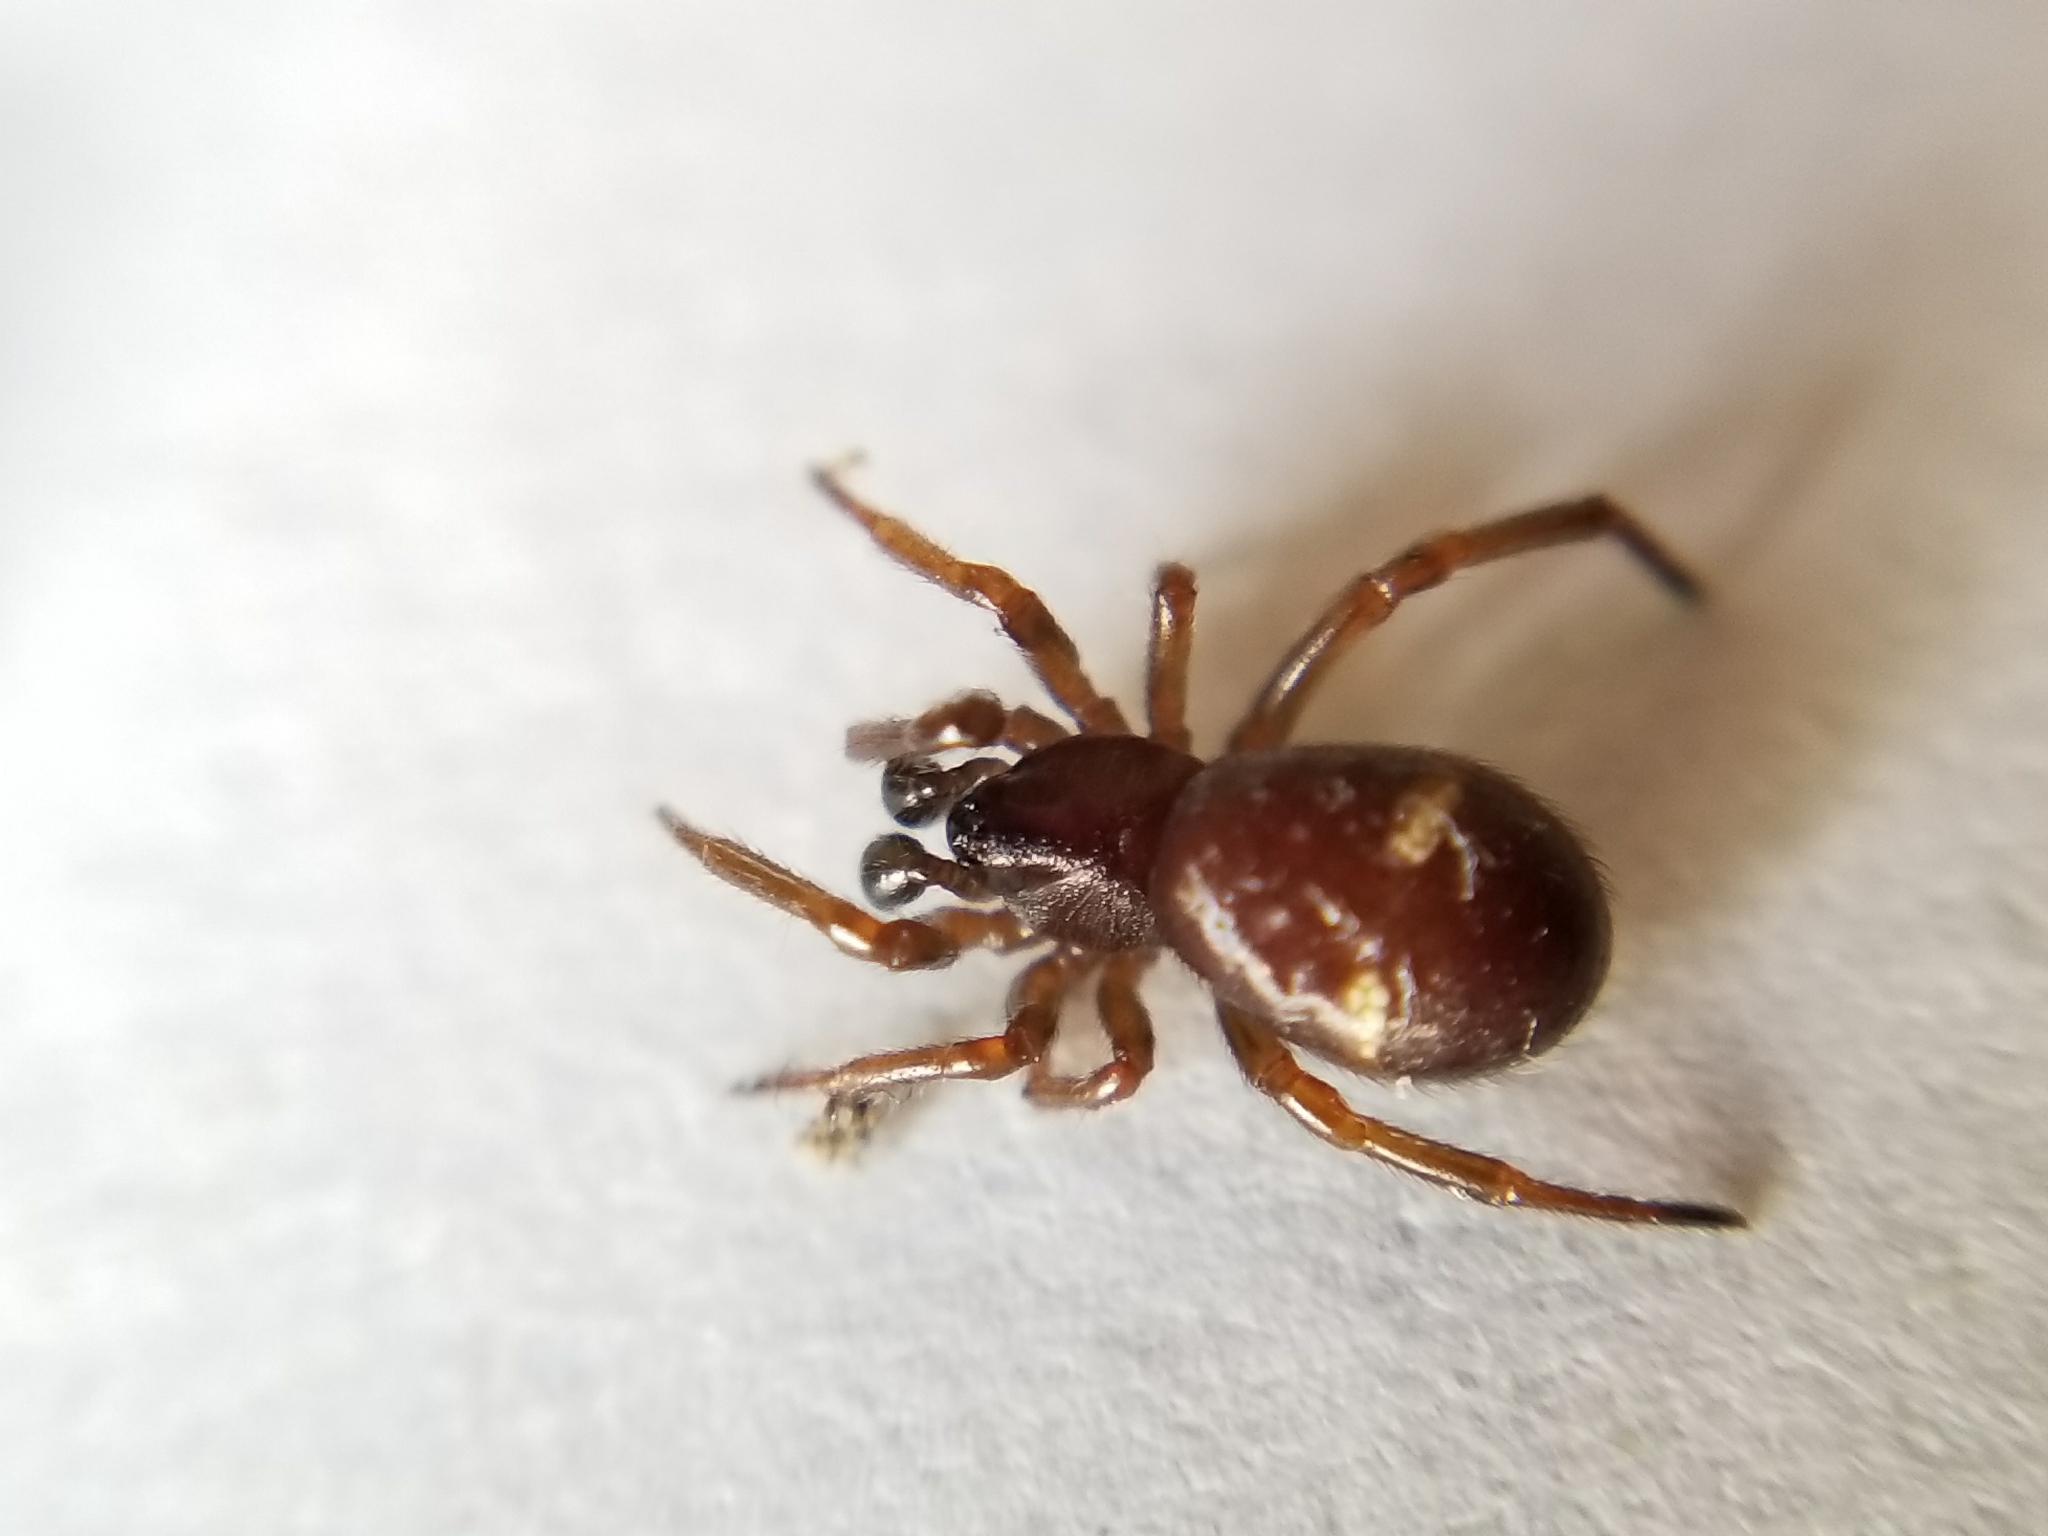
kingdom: Animalia
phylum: Arthropoda
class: Arachnida
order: Araneae
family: Theridiidae
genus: Asagena
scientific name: Asagena americana
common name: Two-spotted cobweb spider
